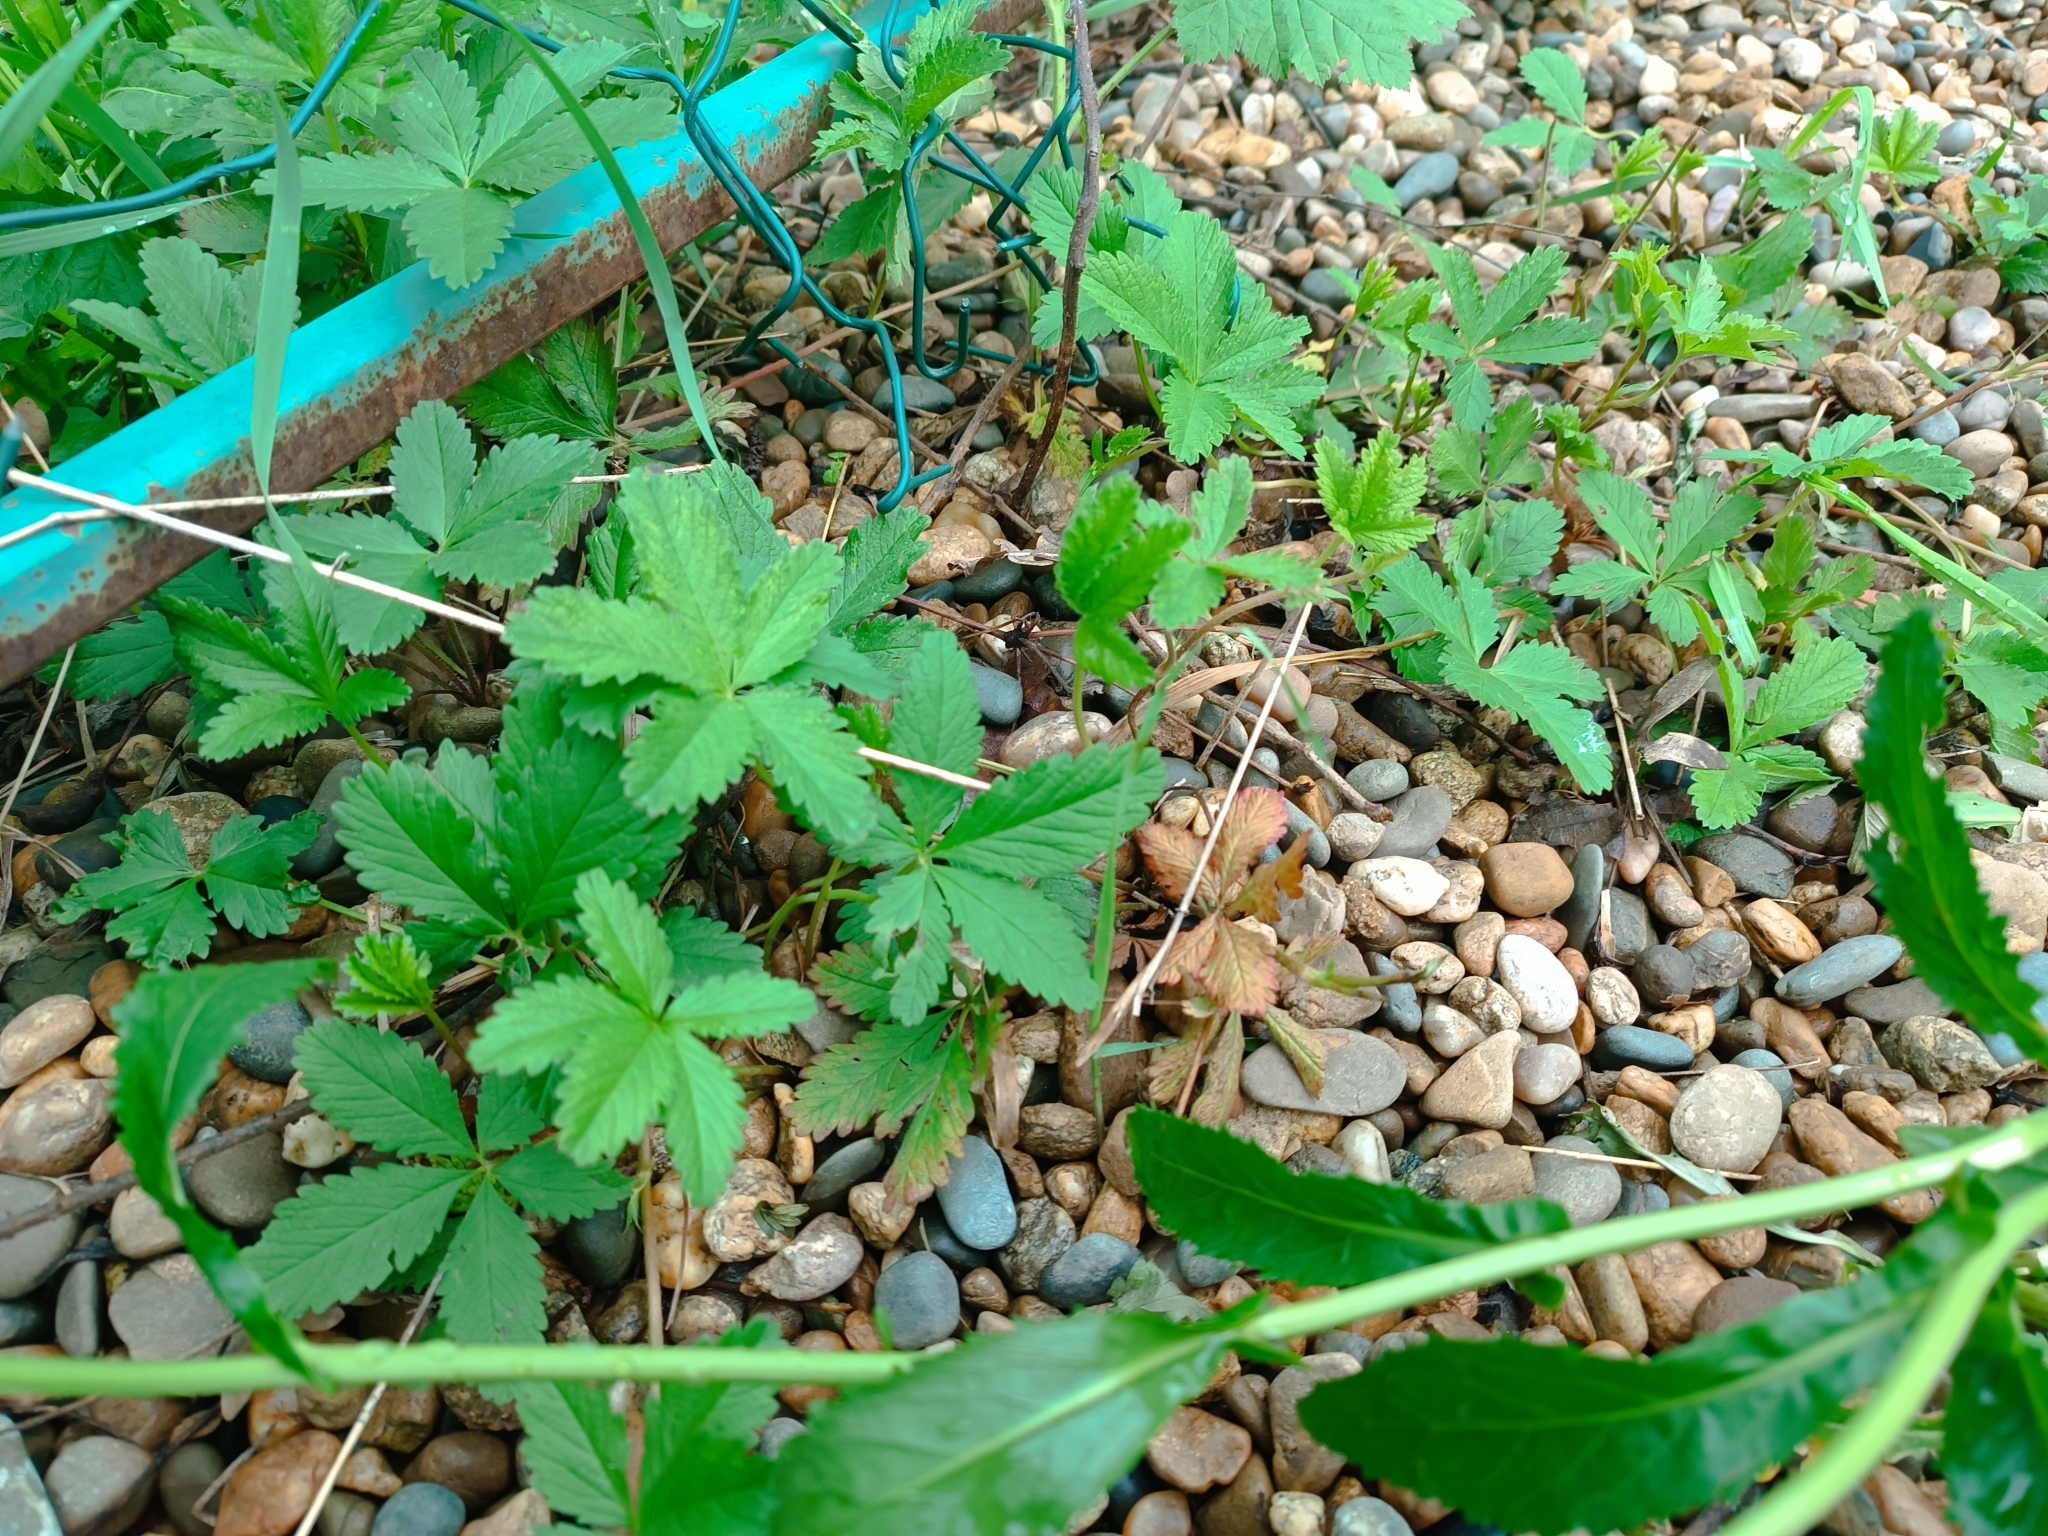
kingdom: Plantae
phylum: Tracheophyta
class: Magnoliopsida
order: Rosales
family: Rosaceae
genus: Potentilla
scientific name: Potentilla reptans
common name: Creeping cinquefoil
